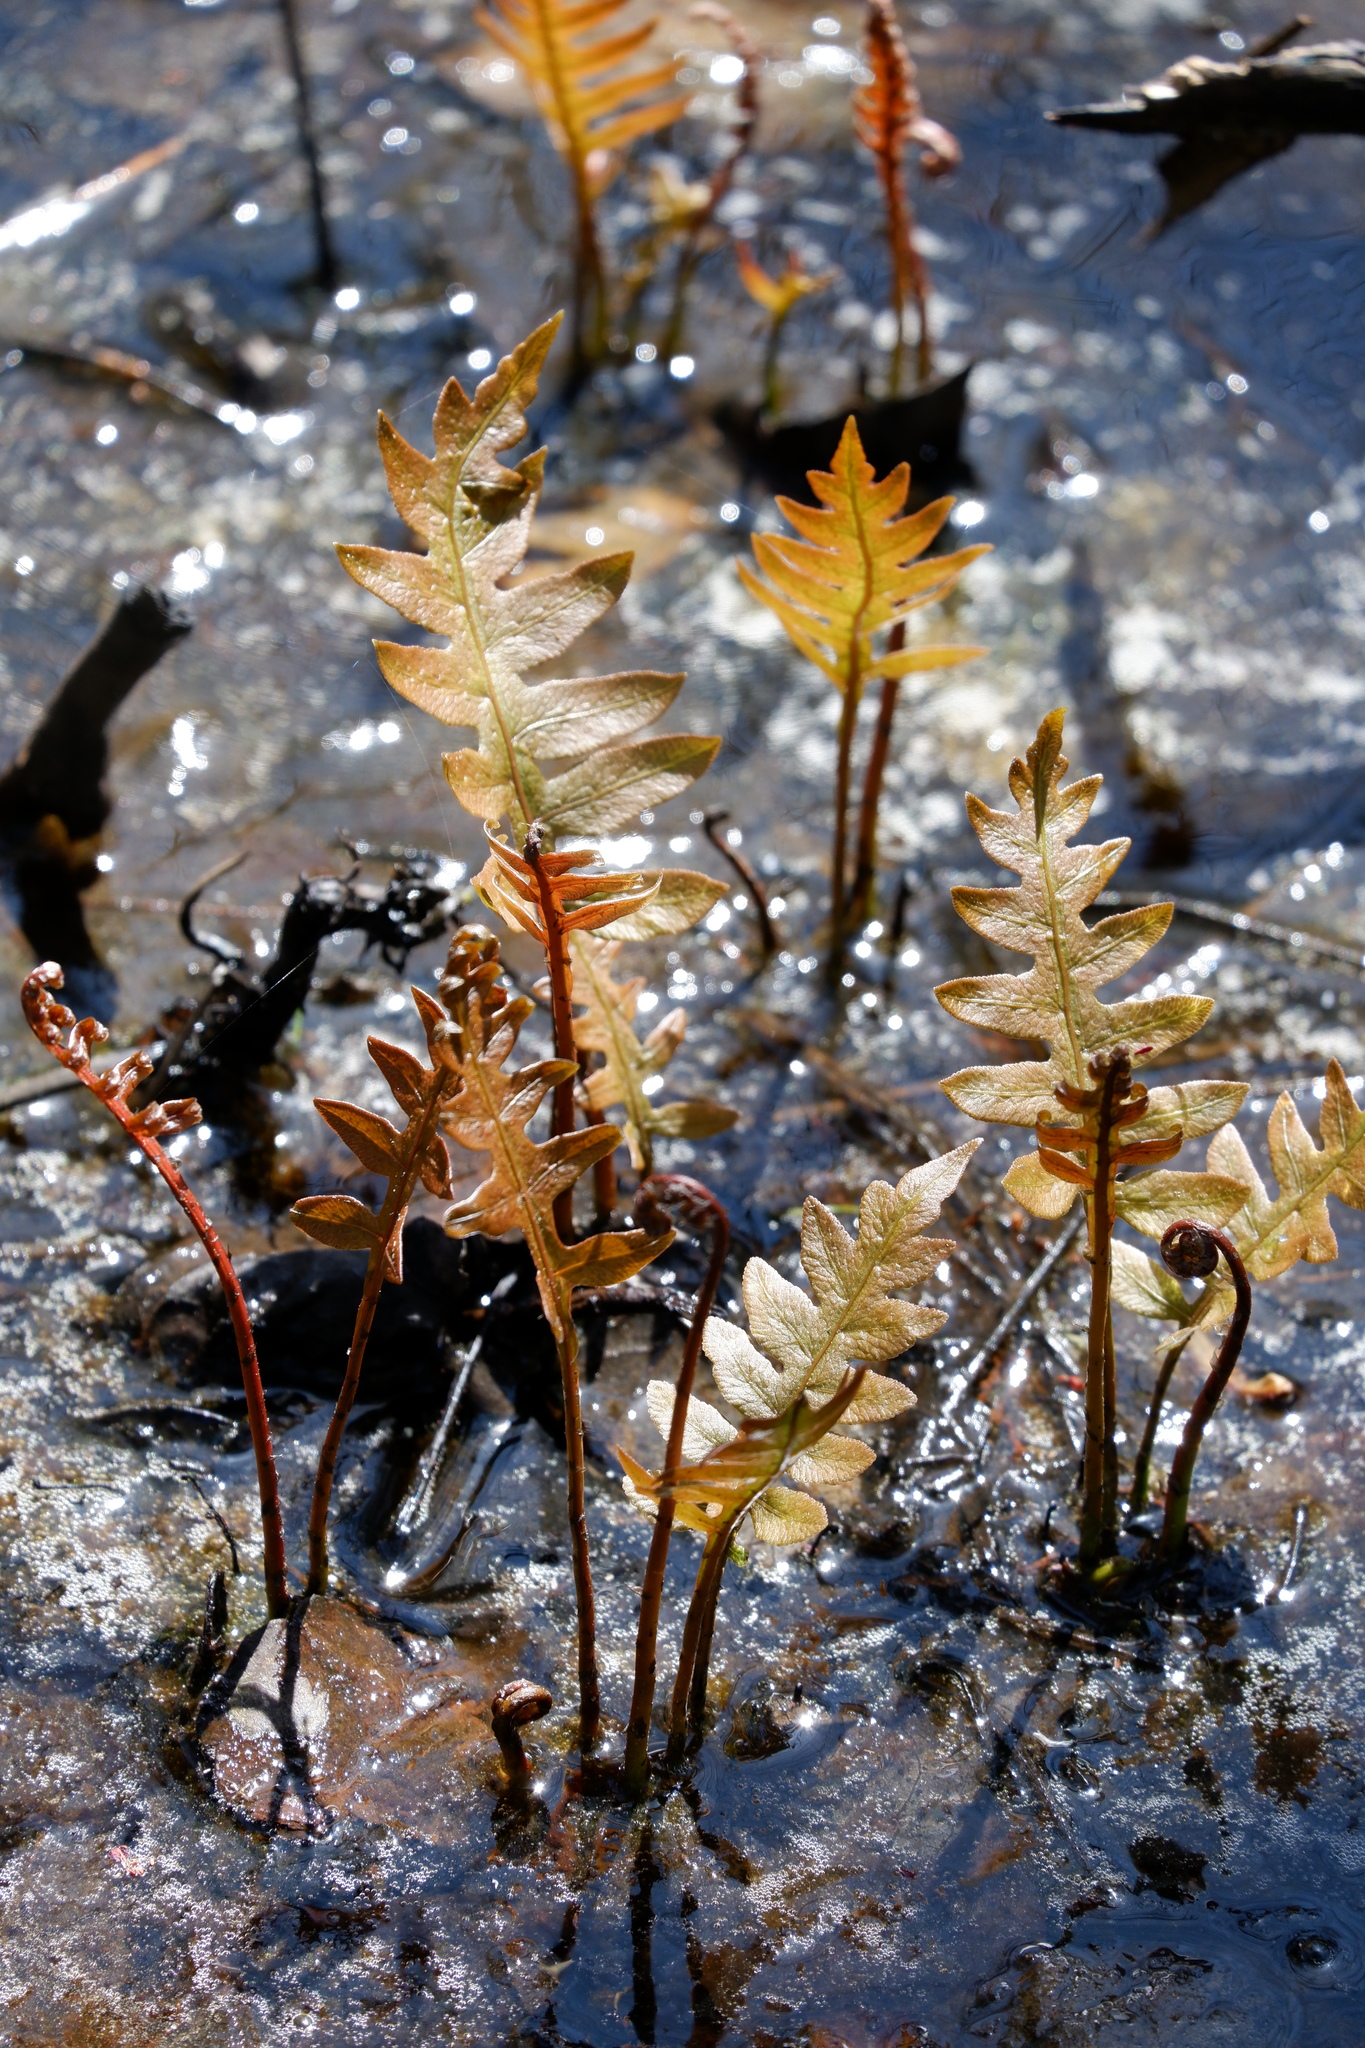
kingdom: Plantae
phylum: Tracheophyta
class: Polypodiopsida
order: Polypodiales
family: Blechnaceae
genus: Lorinseria
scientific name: Lorinseria areolata
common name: Dwarf chain fern
